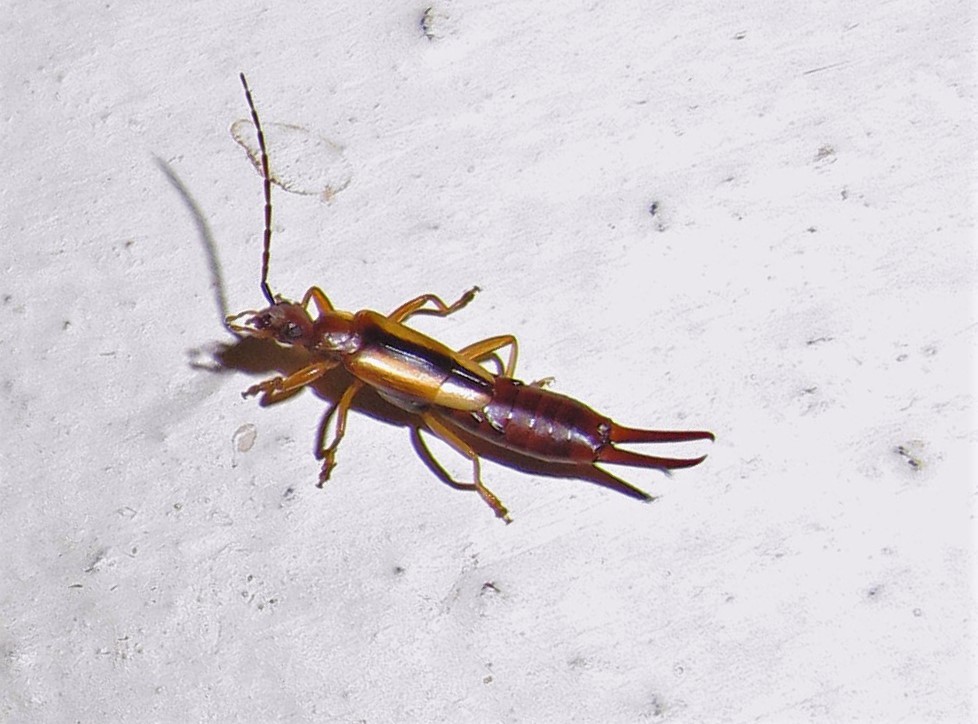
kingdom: Animalia
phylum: Arthropoda
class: Insecta
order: Dermaptera
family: Forficulidae
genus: Doru
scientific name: Doru
